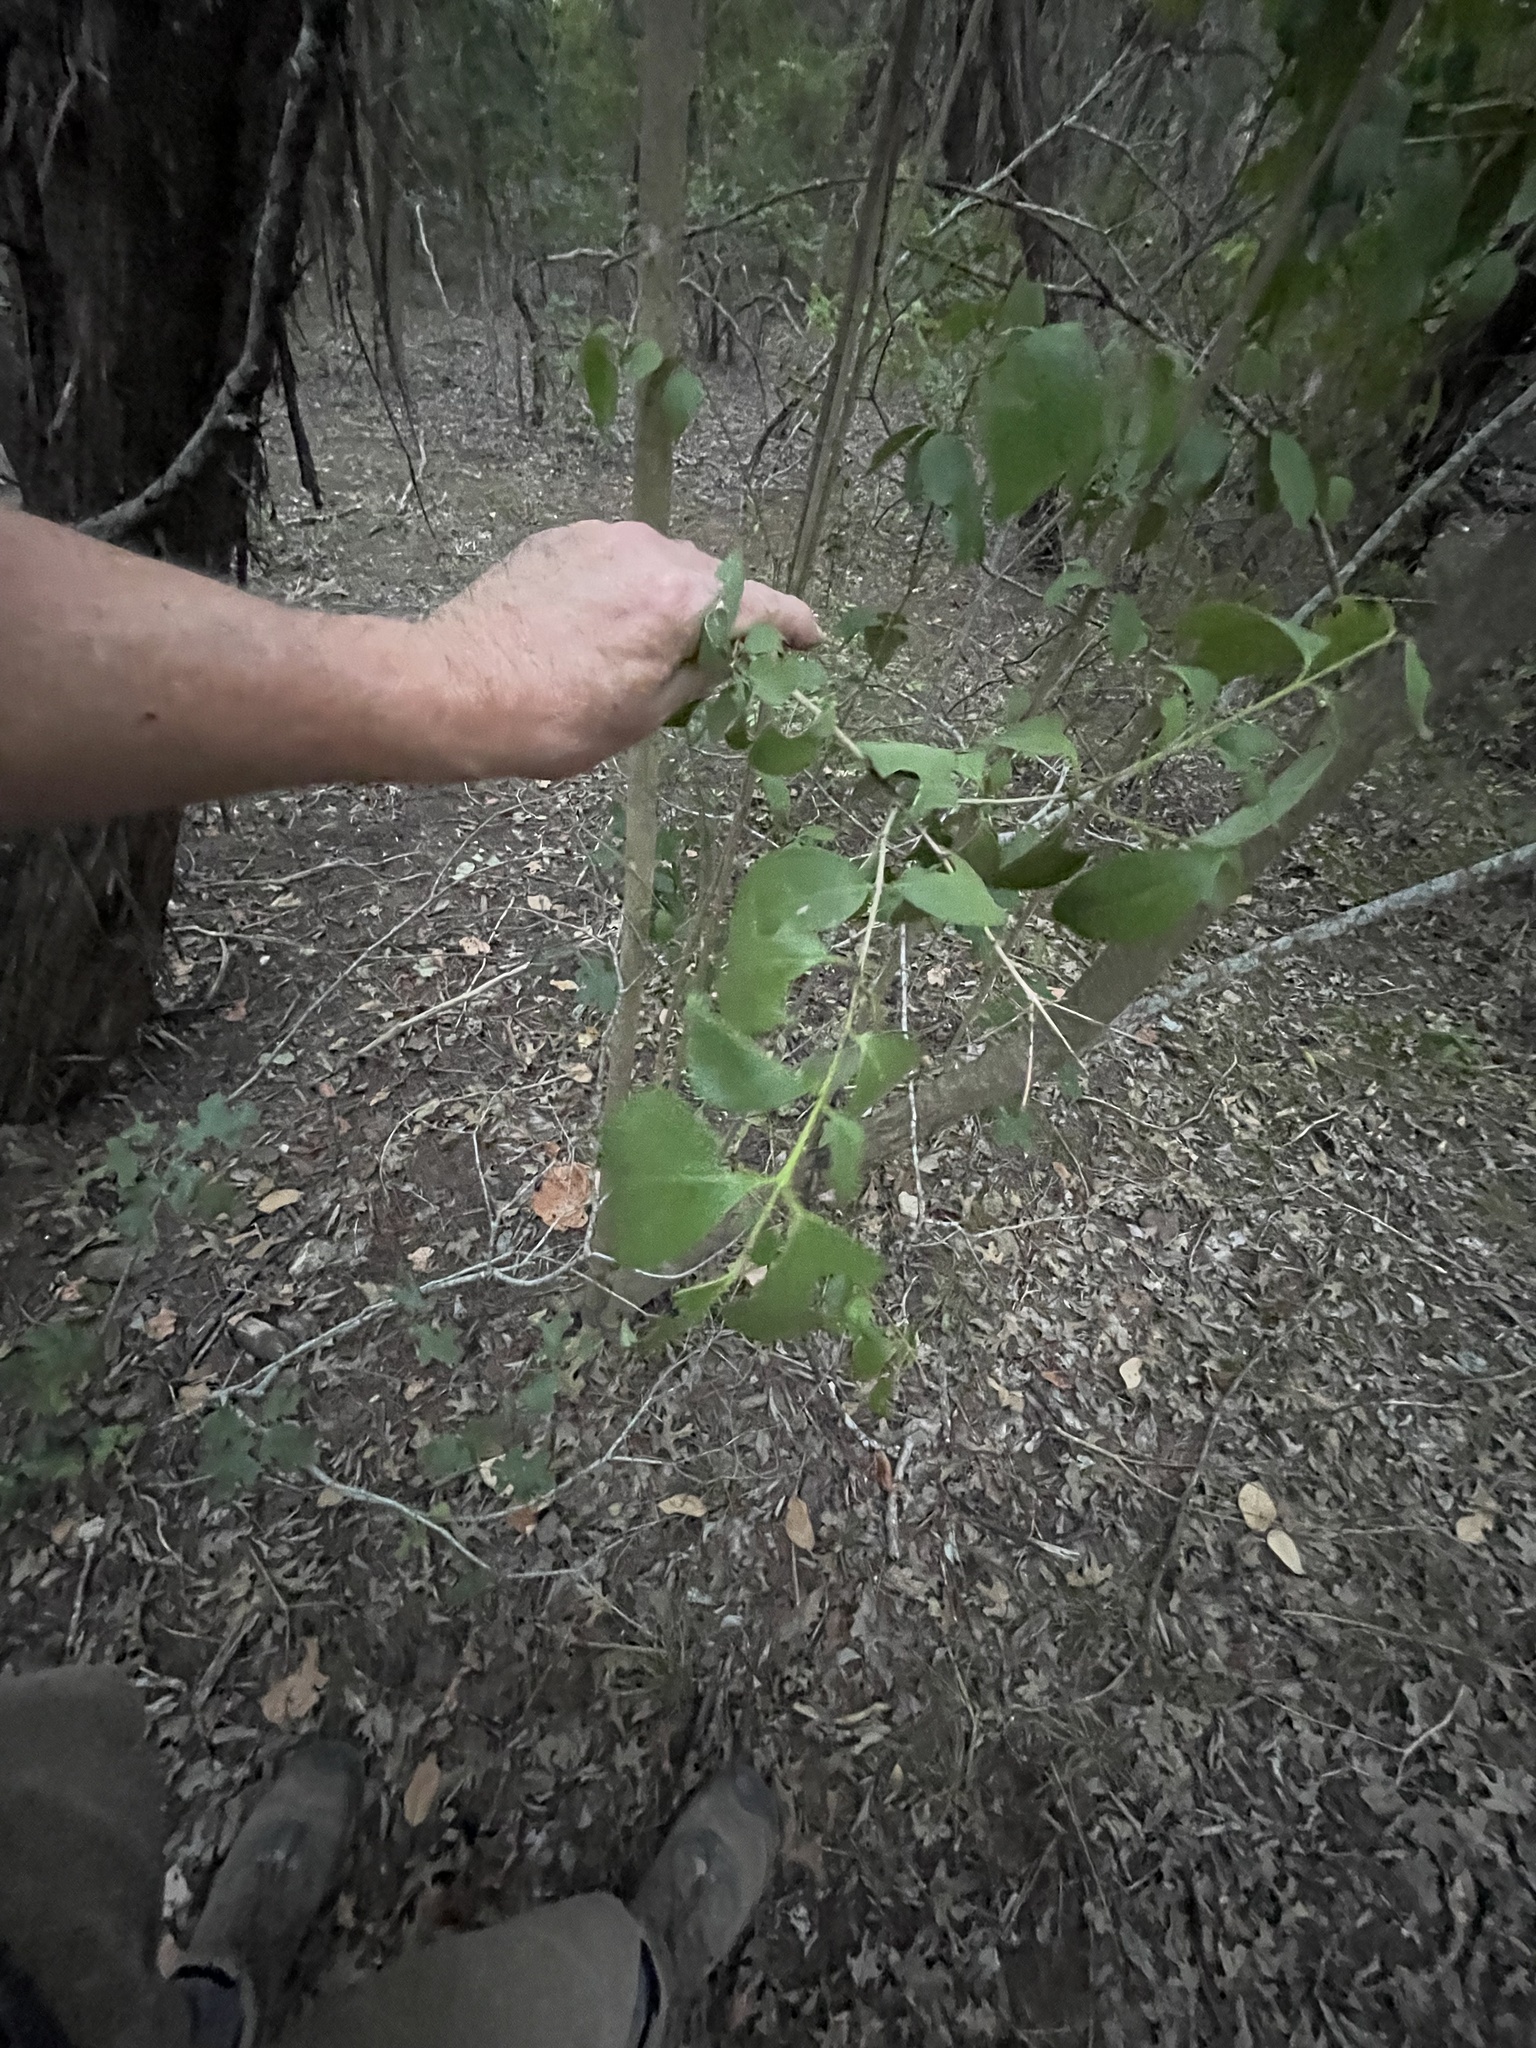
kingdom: Plantae
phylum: Tracheophyta
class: Magnoliopsida
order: Lamiales
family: Oleaceae
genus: Ligustrum
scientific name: Ligustrum lucidum
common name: Glossy privet
